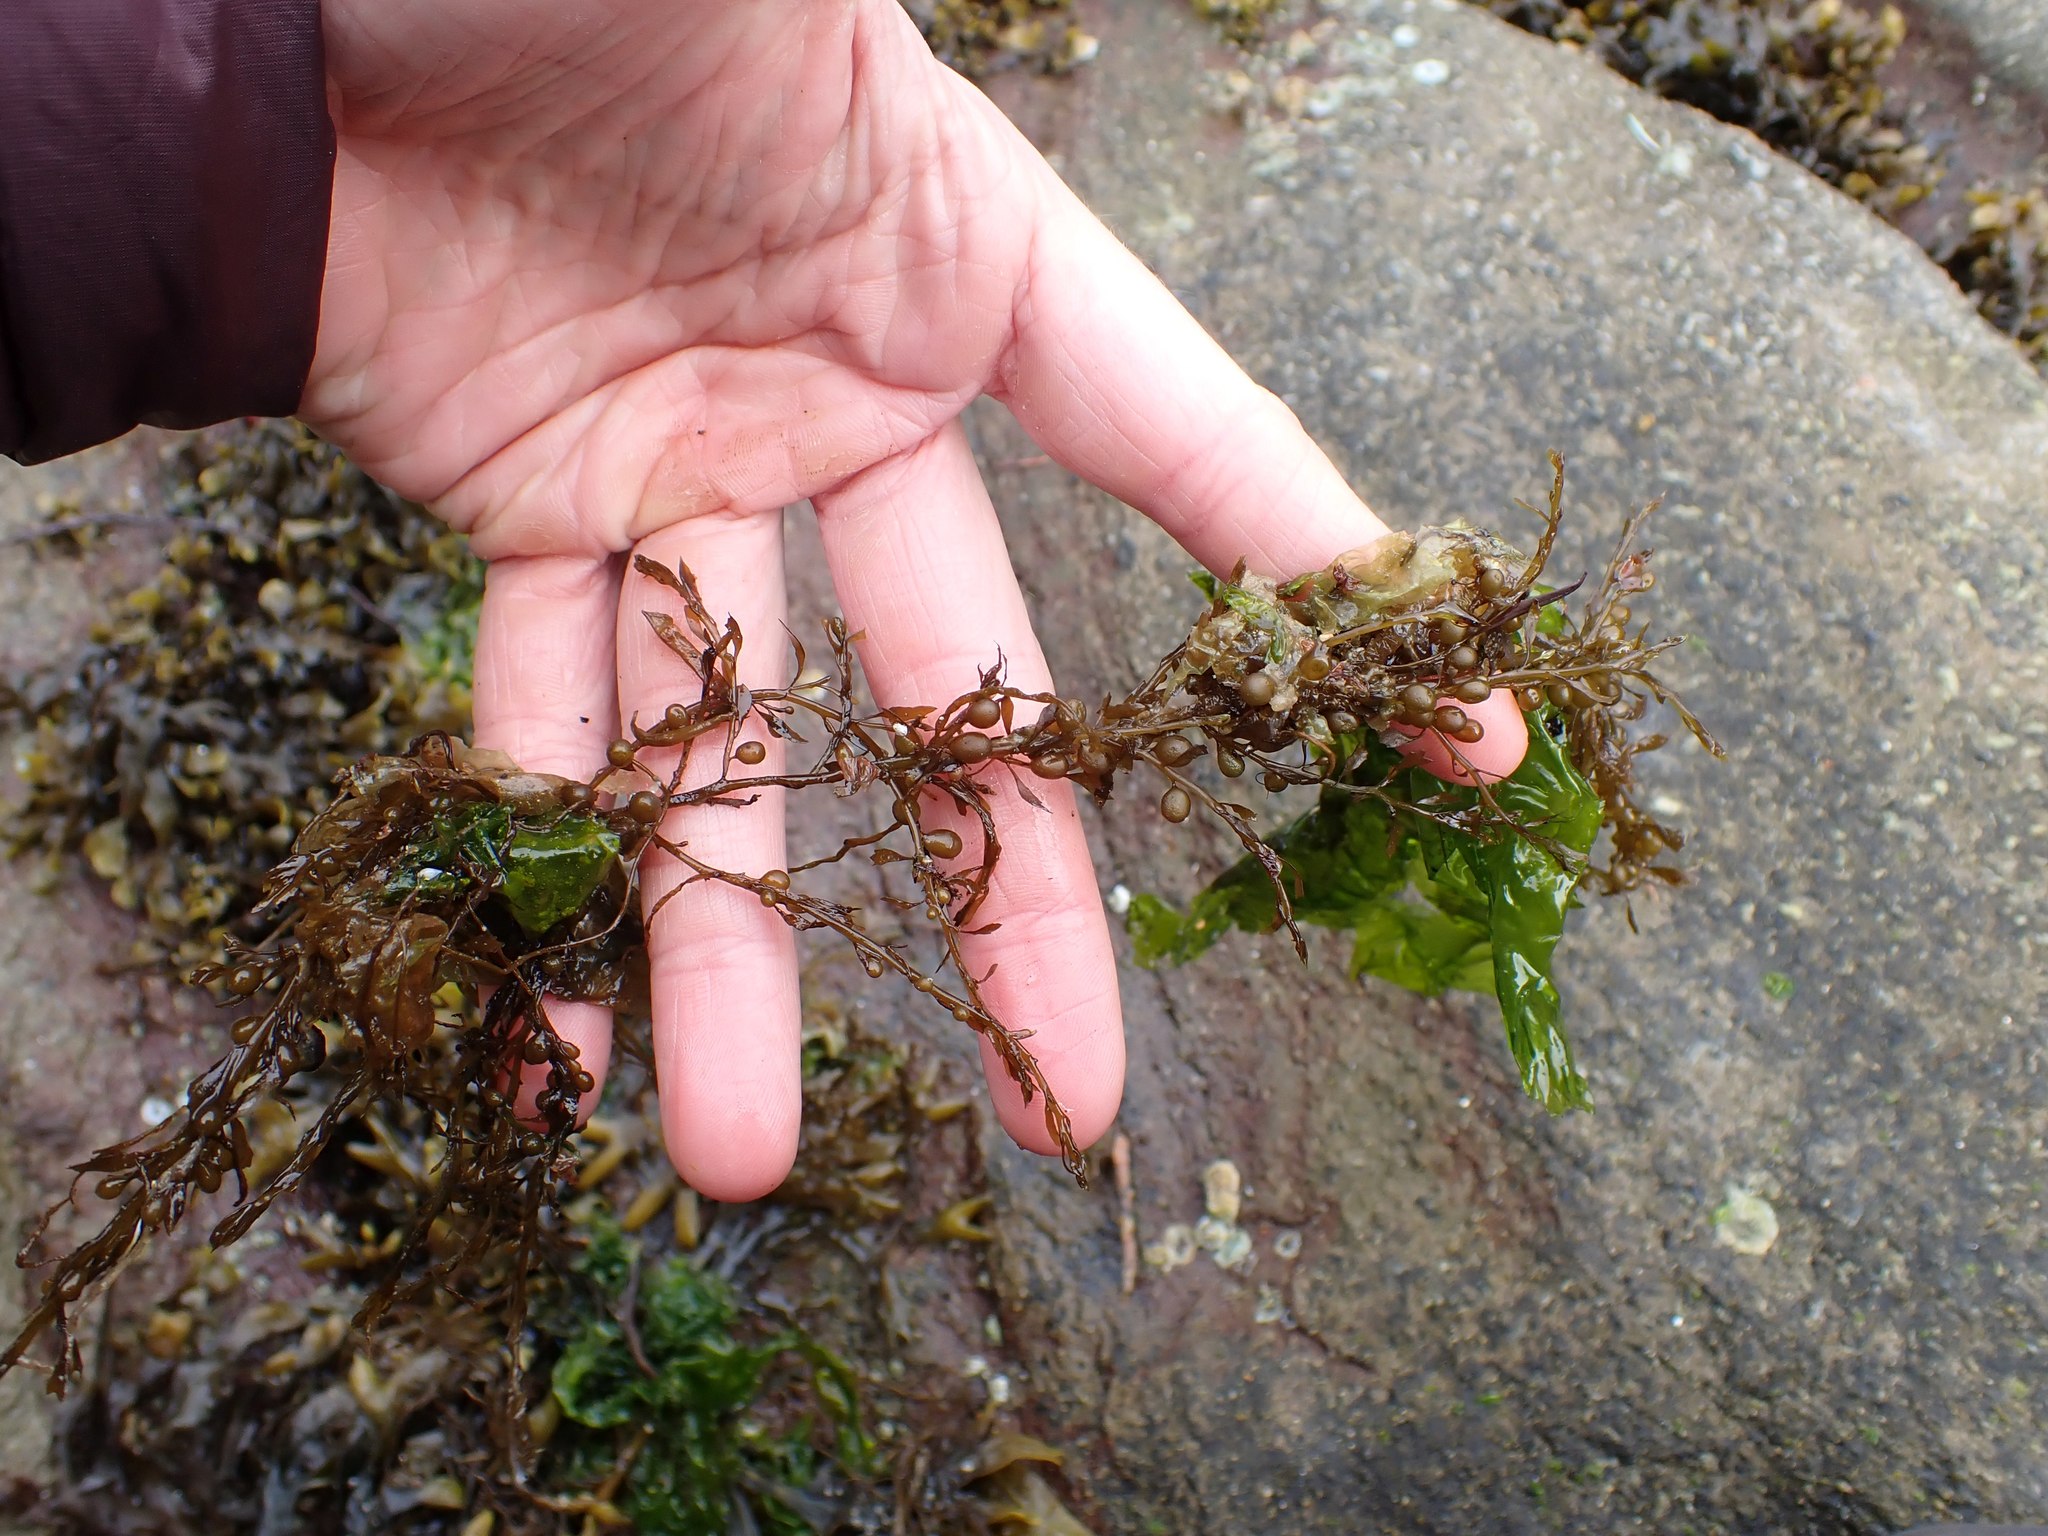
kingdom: Chromista
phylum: Ochrophyta
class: Phaeophyceae
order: Fucales
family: Sargassaceae
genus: Sargassum
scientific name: Sargassum muticum
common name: Japweed
